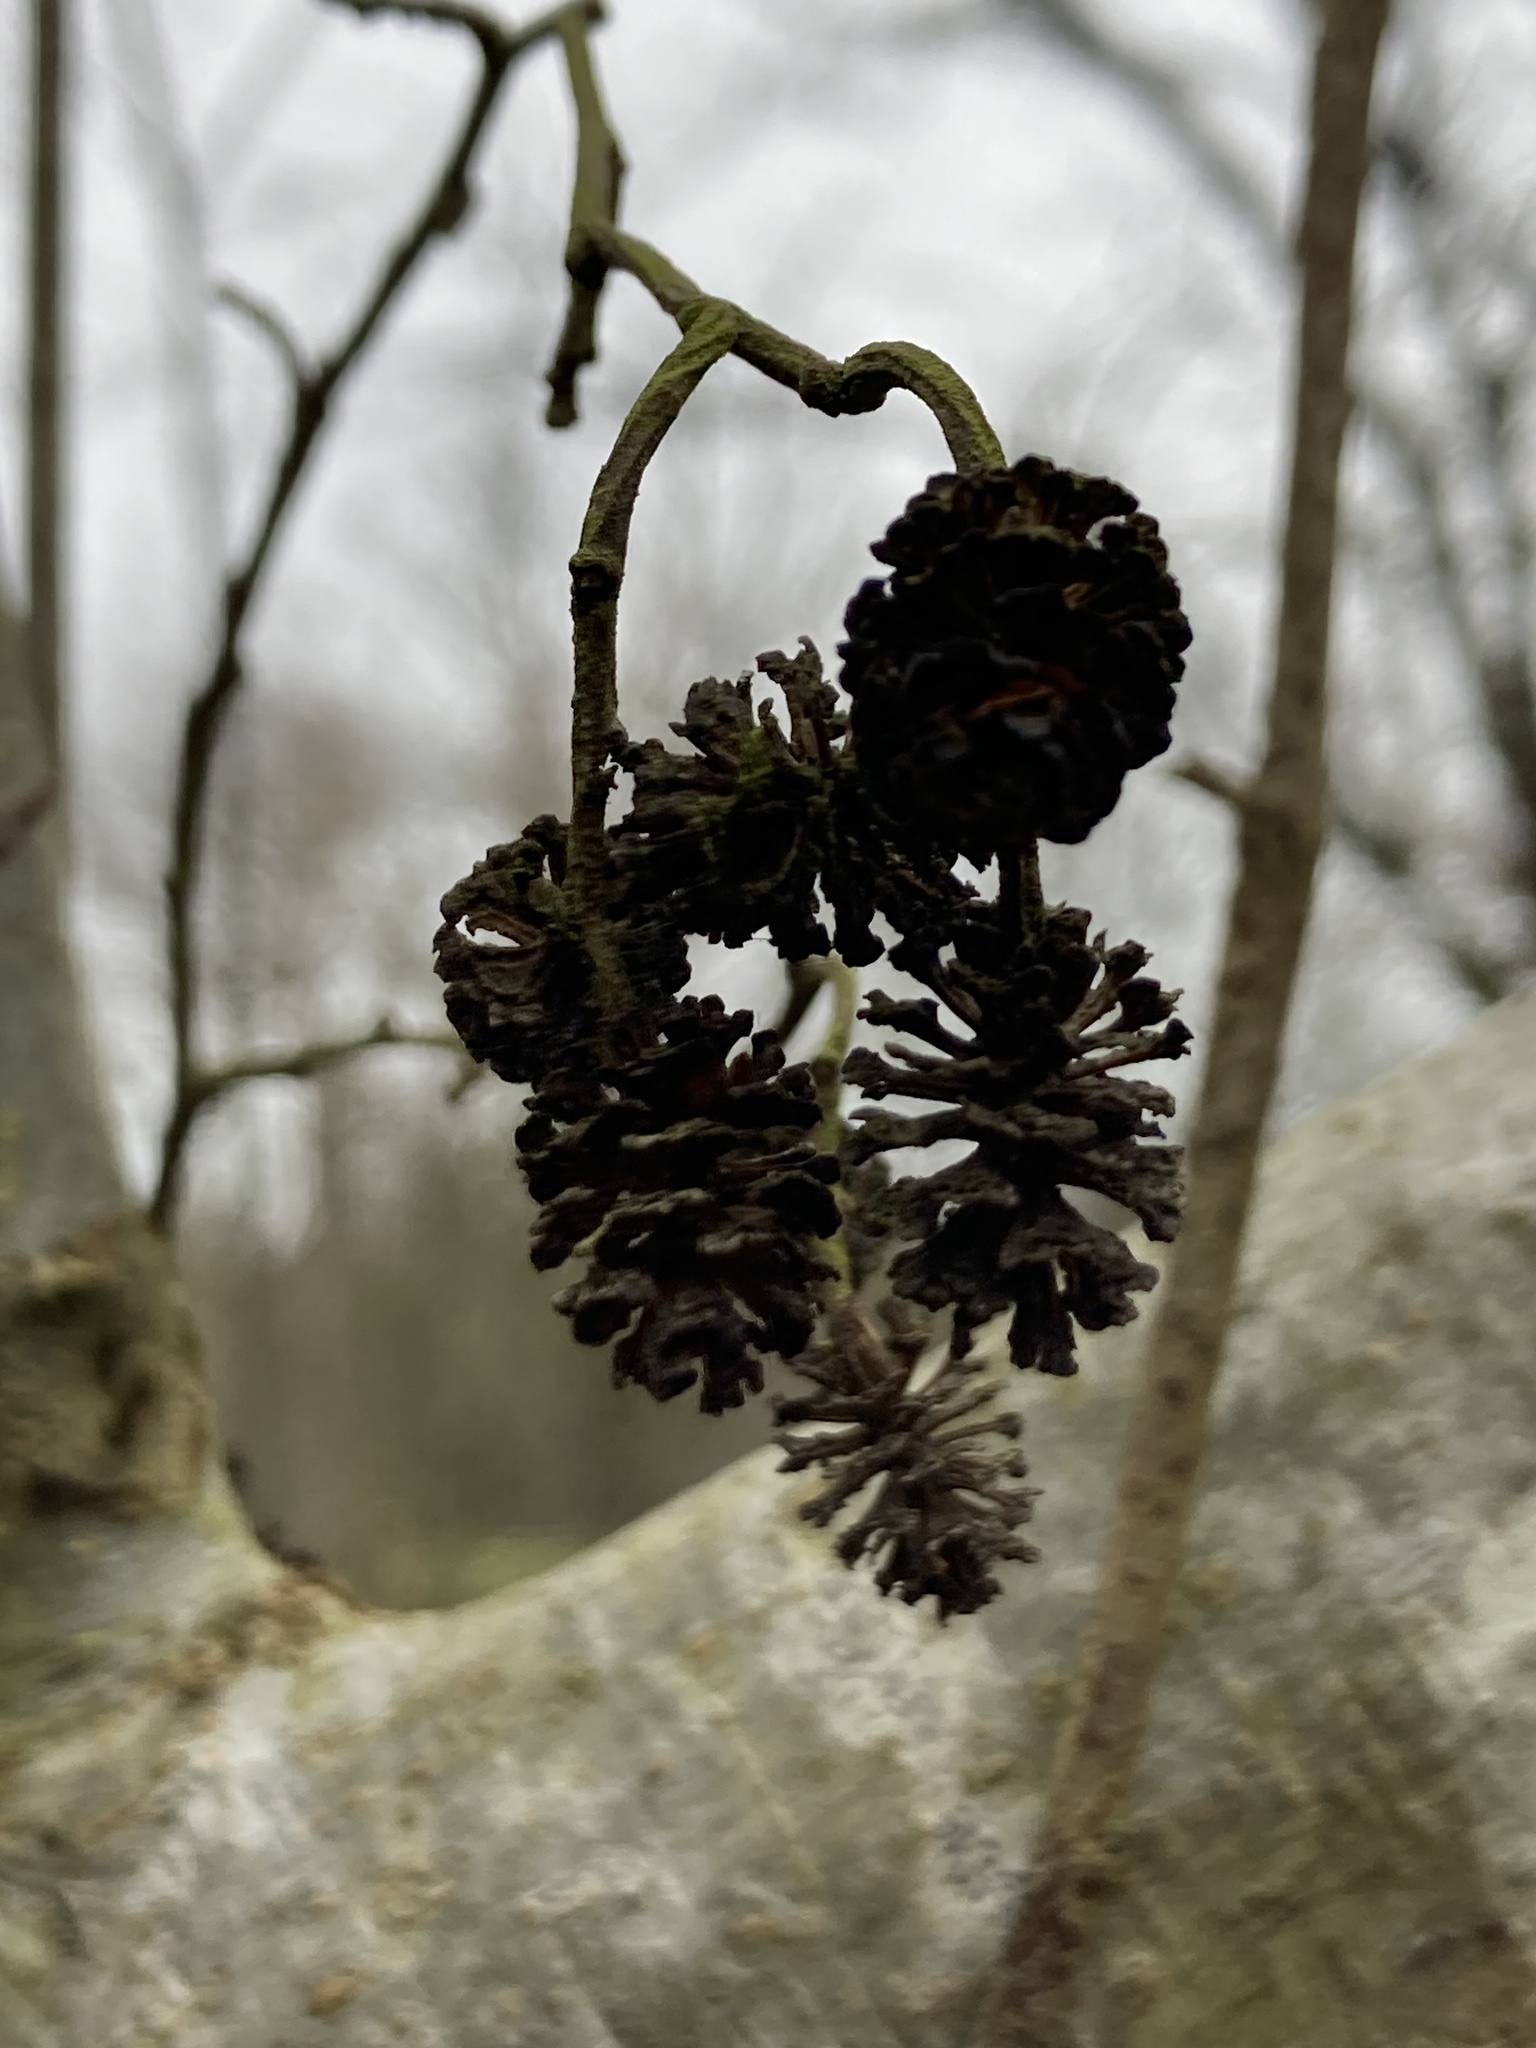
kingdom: Plantae
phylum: Tracheophyta
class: Magnoliopsida
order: Fagales
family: Betulaceae
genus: Alnus
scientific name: Alnus glutinosa
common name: Black alder
